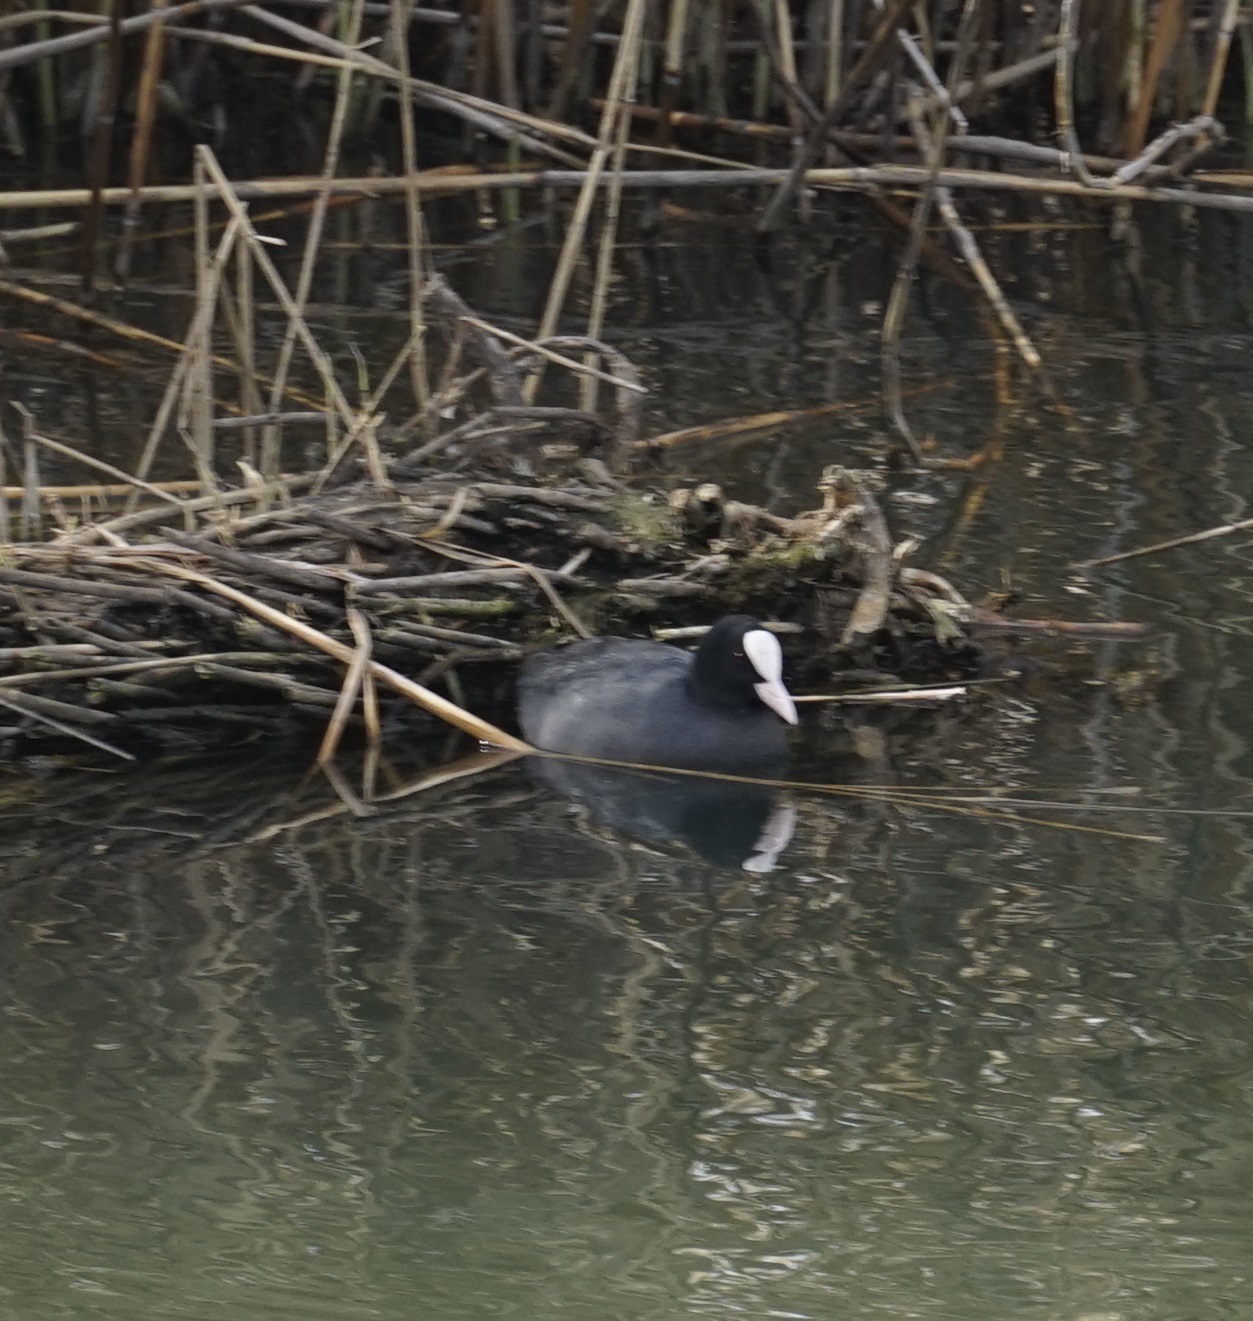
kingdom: Animalia
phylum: Chordata
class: Aves
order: Gruiformes
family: Rallidae
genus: Fulica
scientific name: Fulica atra
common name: Eurasian coot
